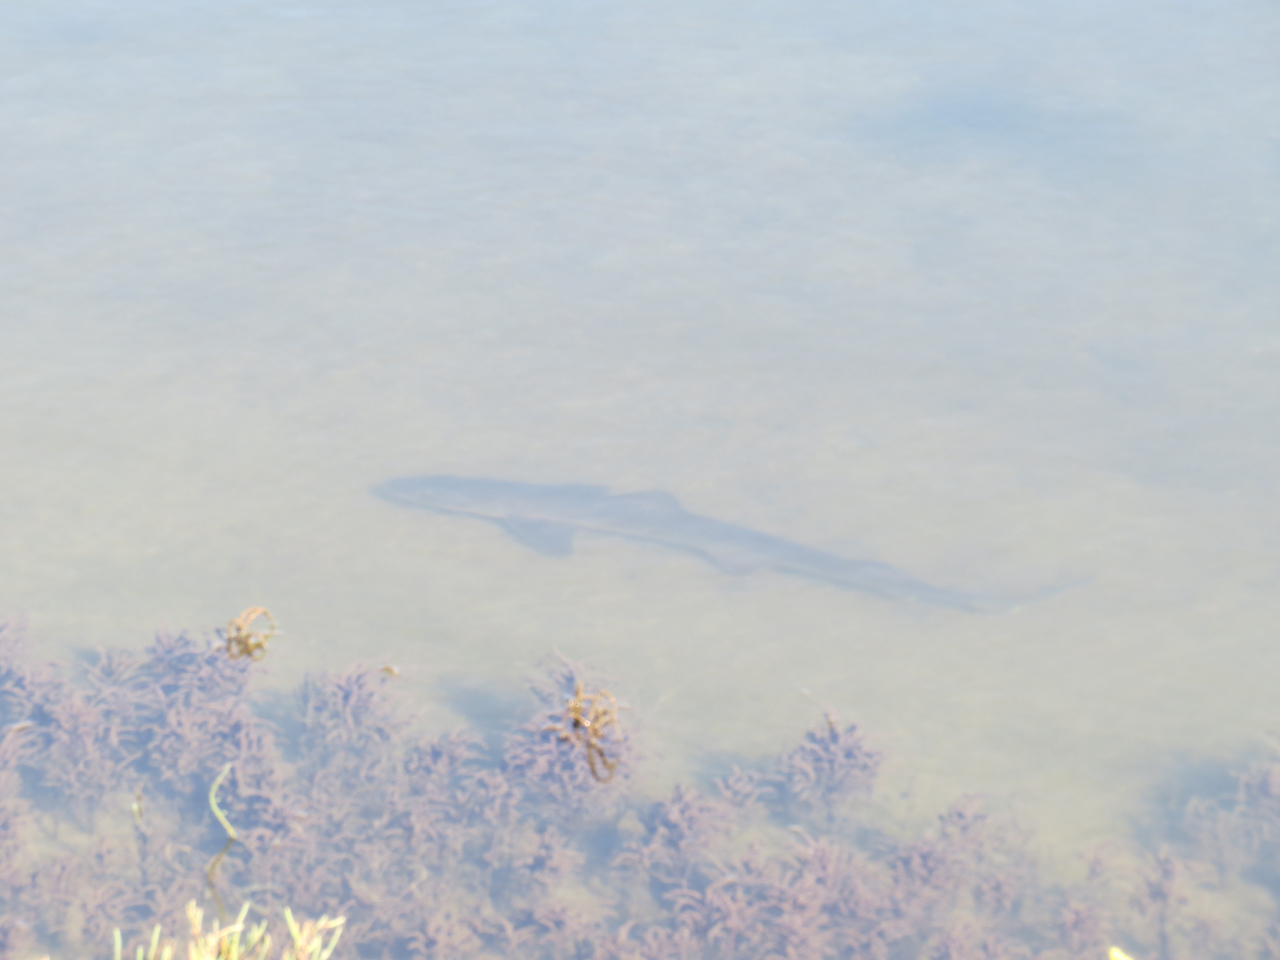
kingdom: Animalia
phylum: Chordata
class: Elasmobranchii
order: Carcharhiniformes
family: Triakidae
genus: Mustelus
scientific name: Mustelus californicus
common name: Gray smooth hound
